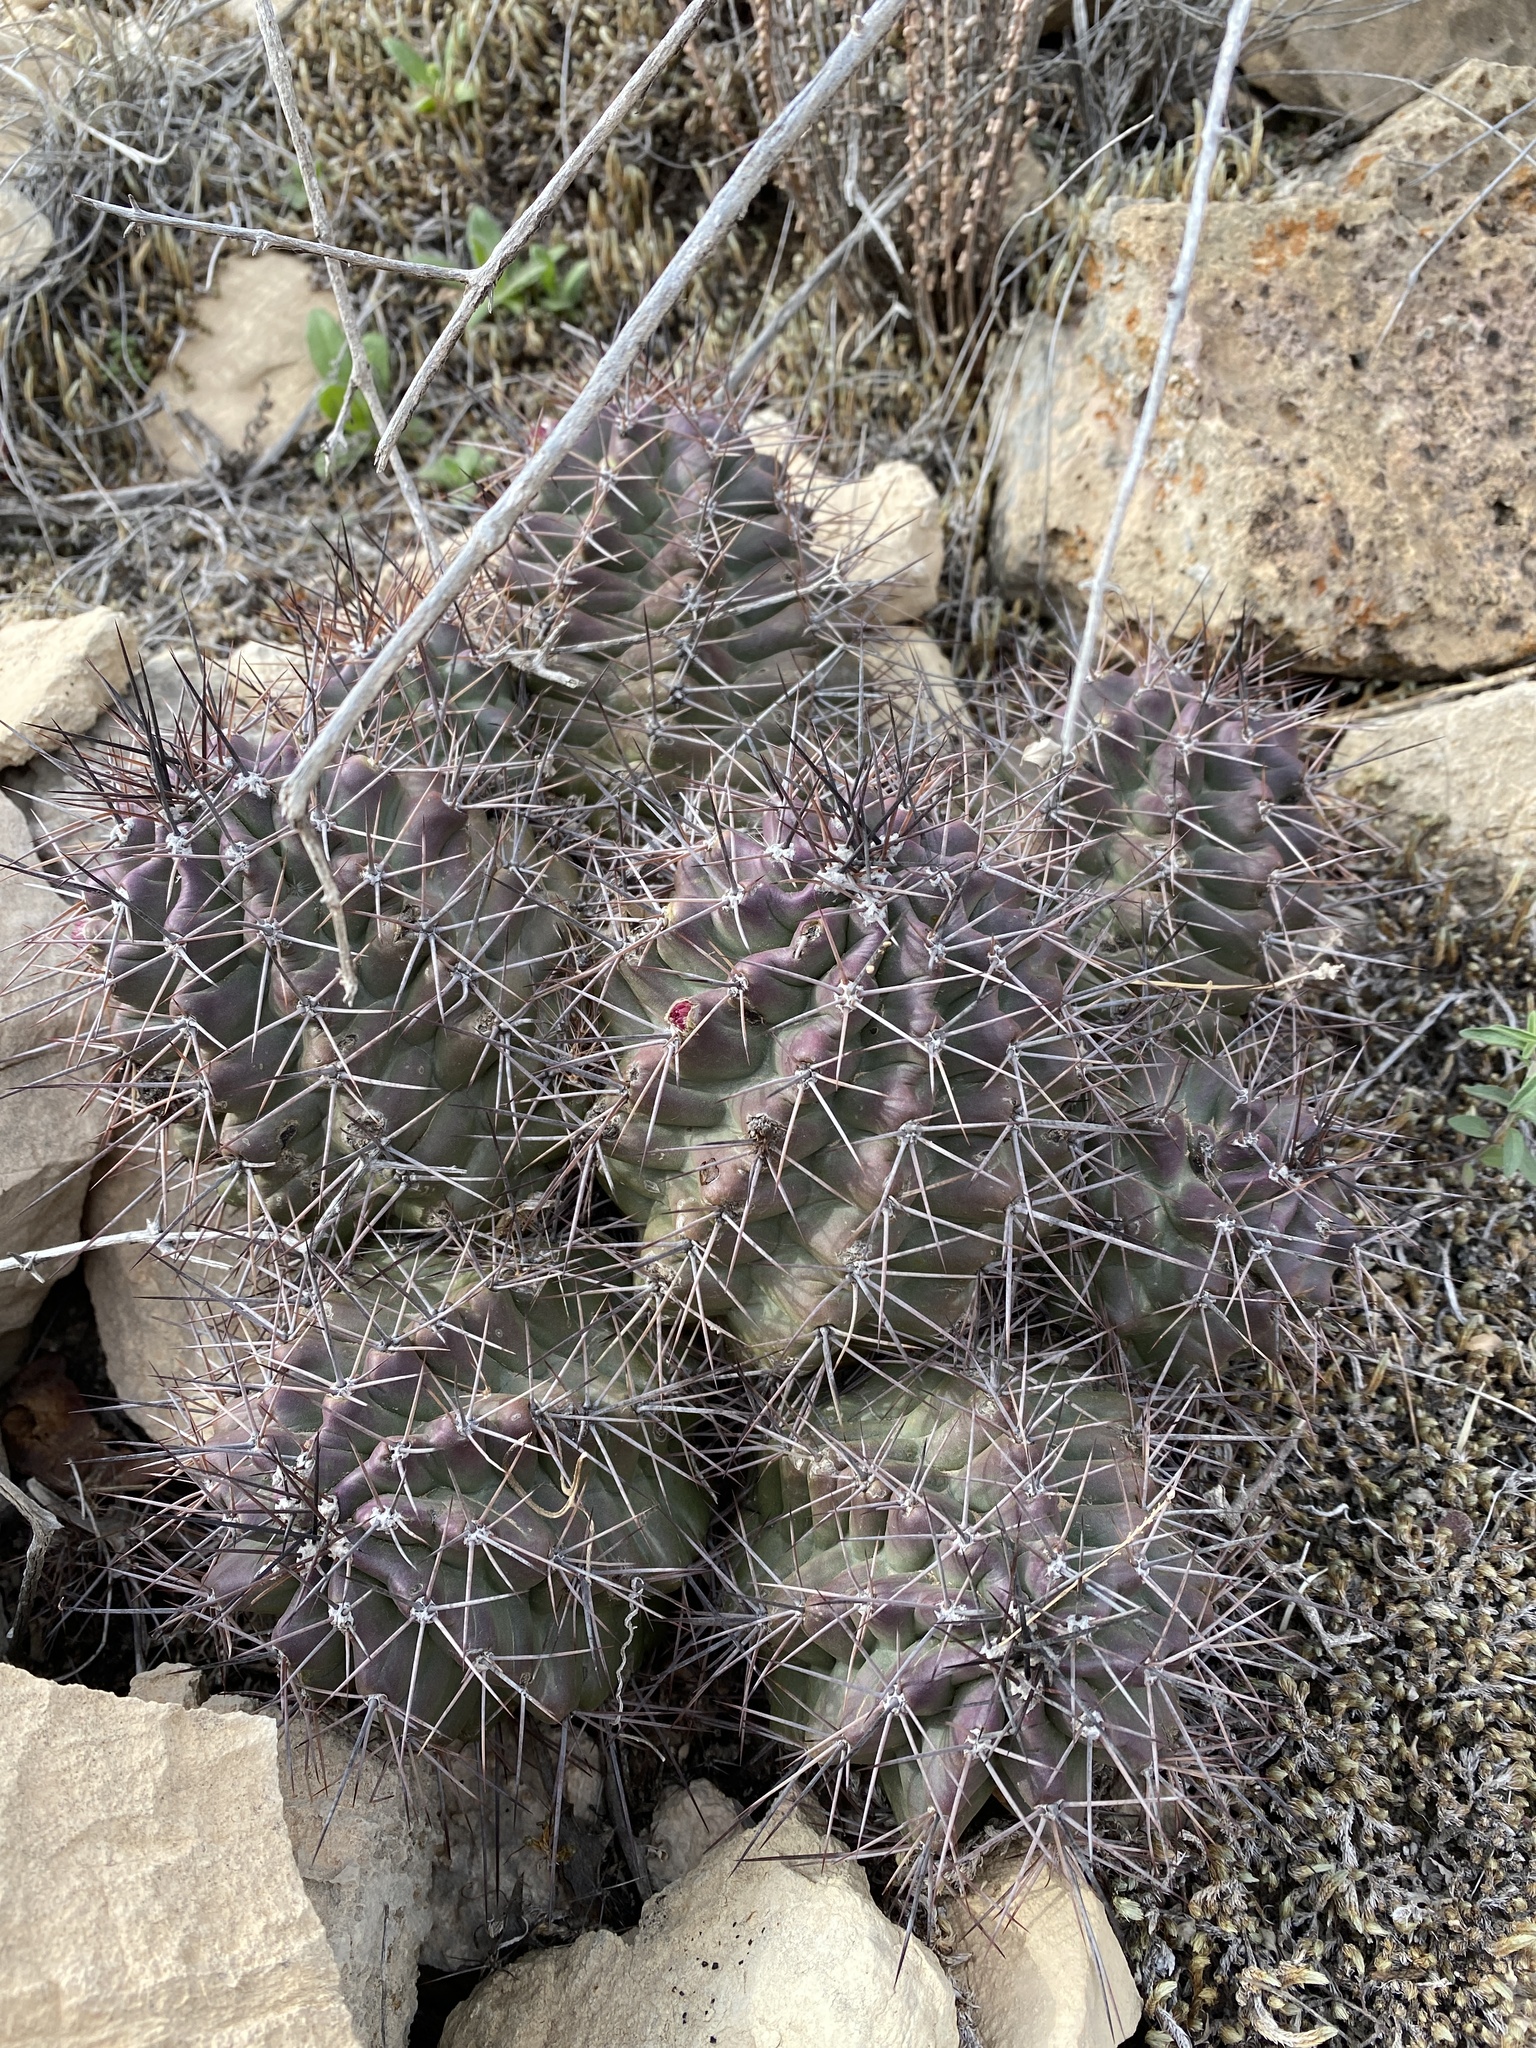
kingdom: Plantae
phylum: Tracheophyta
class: Magnoliopsida
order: Caryophyllales
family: Cactaceae
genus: Echinocereus
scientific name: Echinocereus coccineus
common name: Scarlet hedgehog cactus
